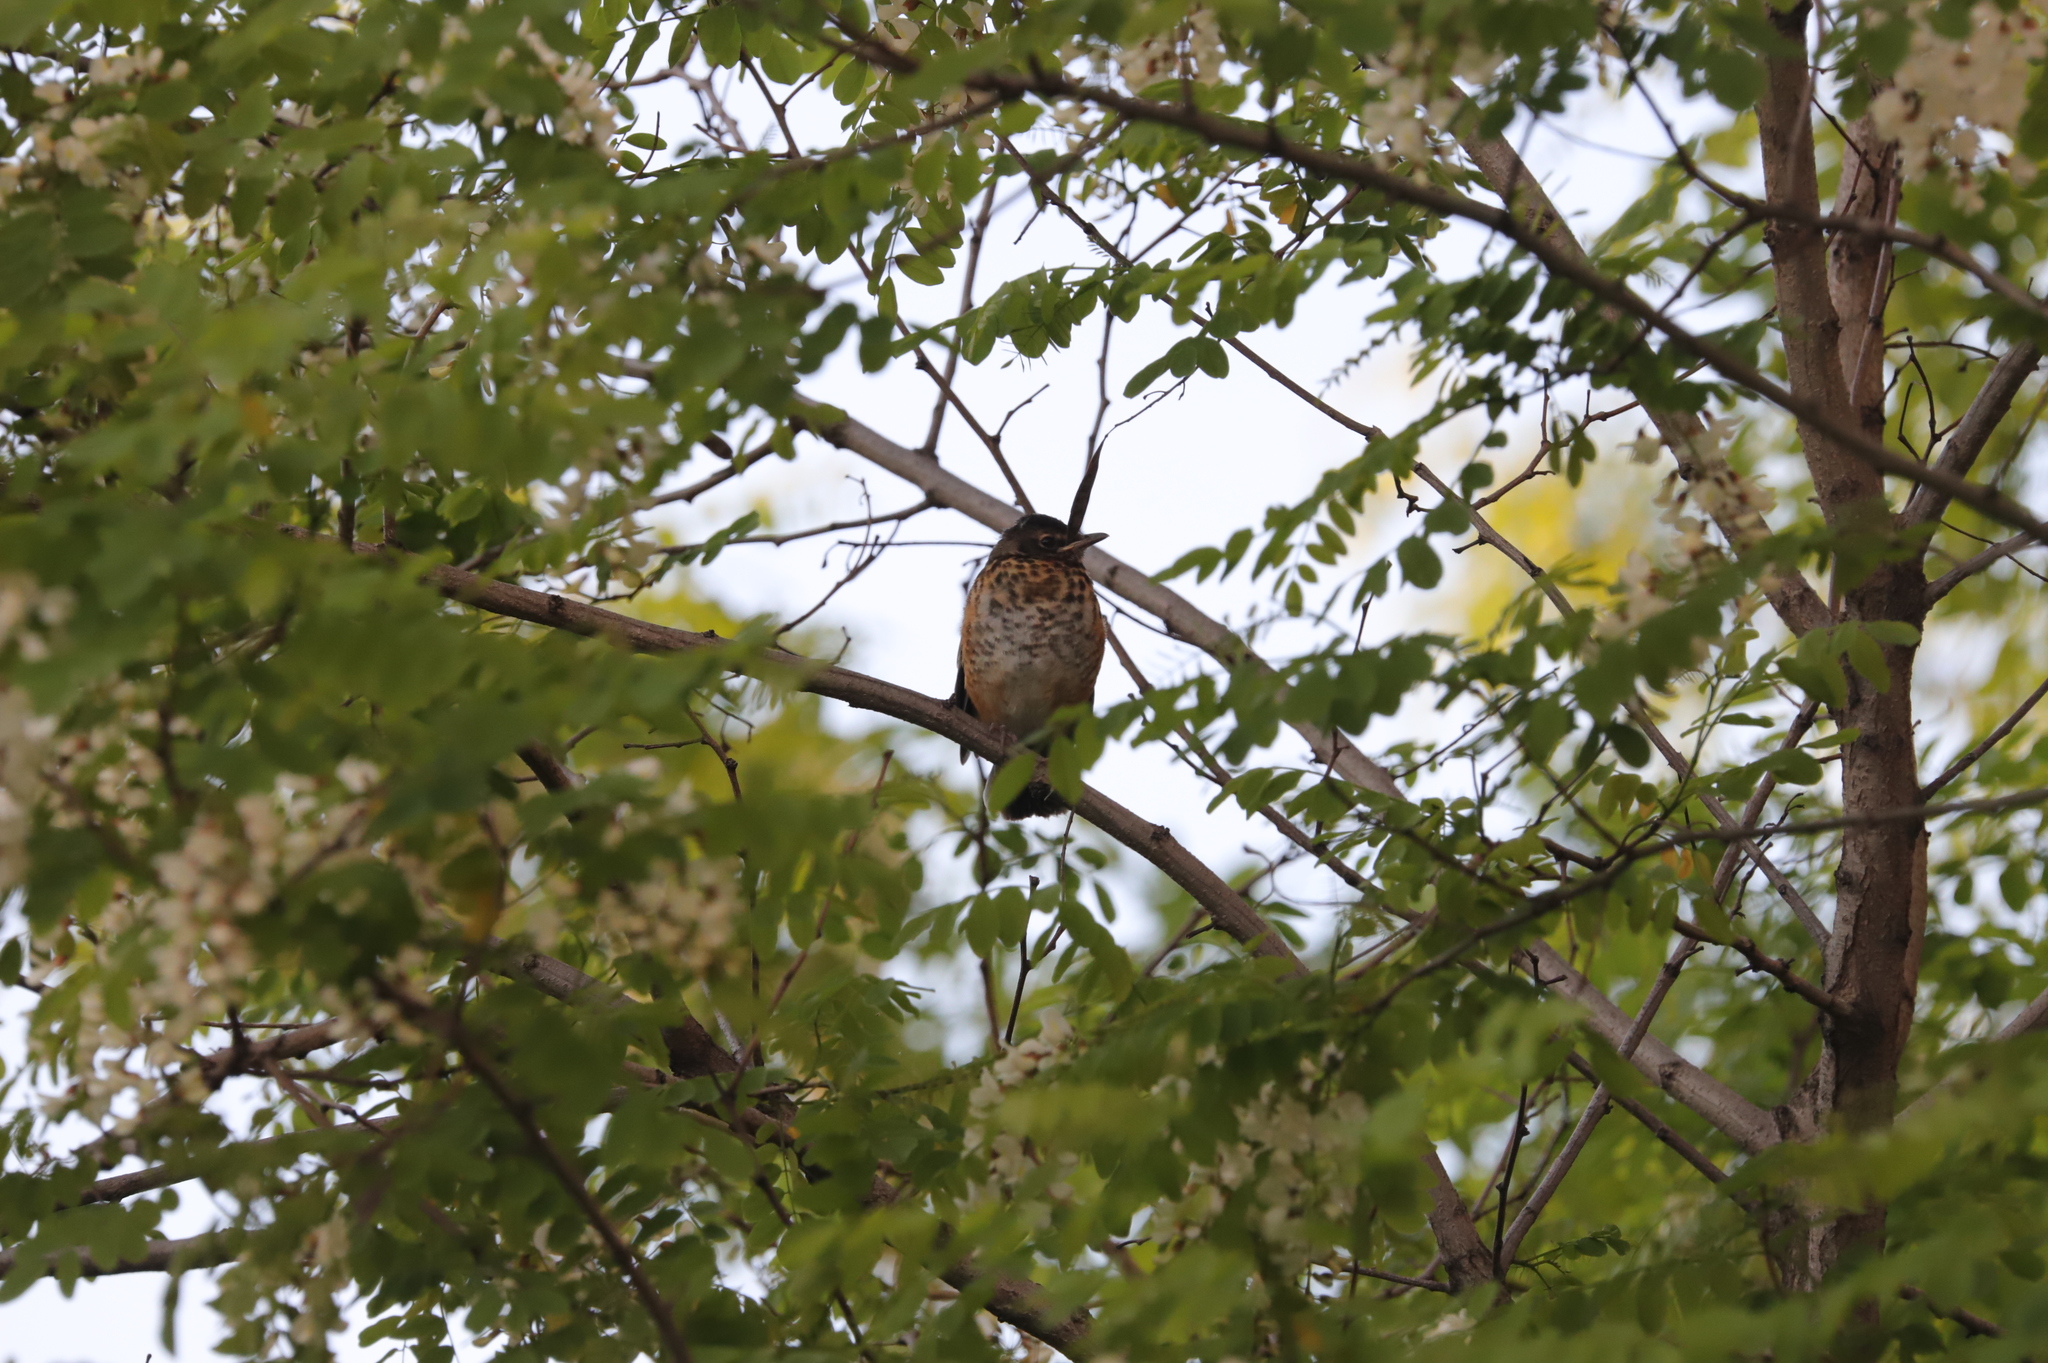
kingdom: Animalia
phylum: Chordata
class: Aves
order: Passeriformes
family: Turdidae
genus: Turdus
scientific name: Turdus migratorius
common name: American robin
